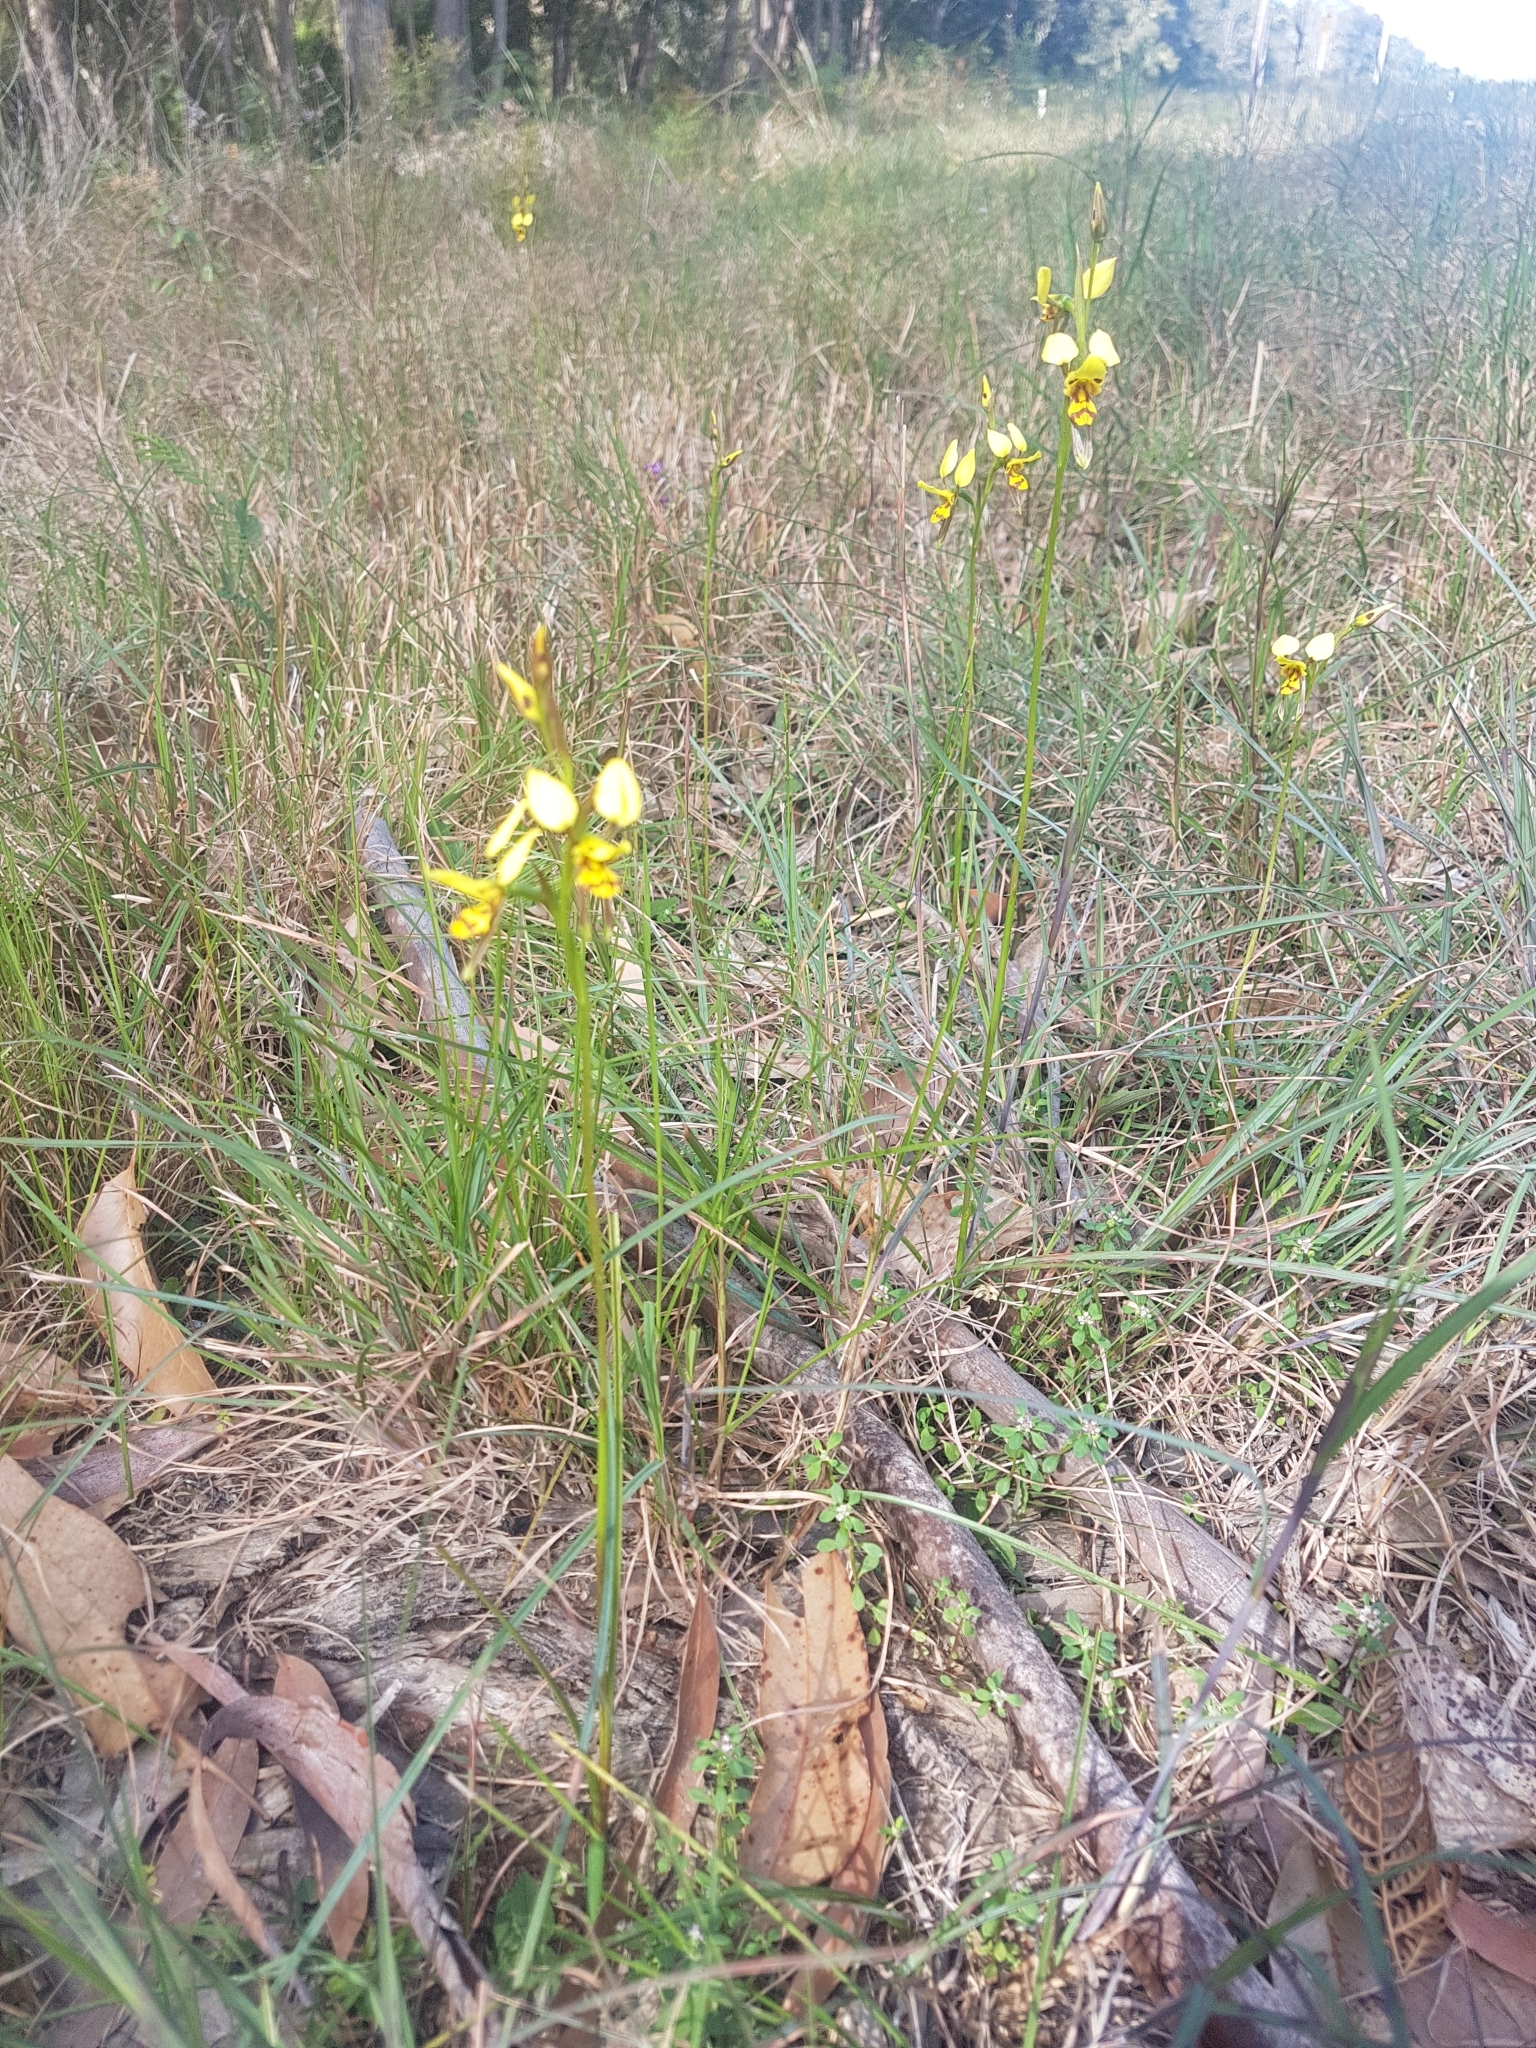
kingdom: Plantae
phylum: Tracheophyta
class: Liliopsida
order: Asparagales
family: Orchidaceae
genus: Diuris
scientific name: Diuris sulphurea
